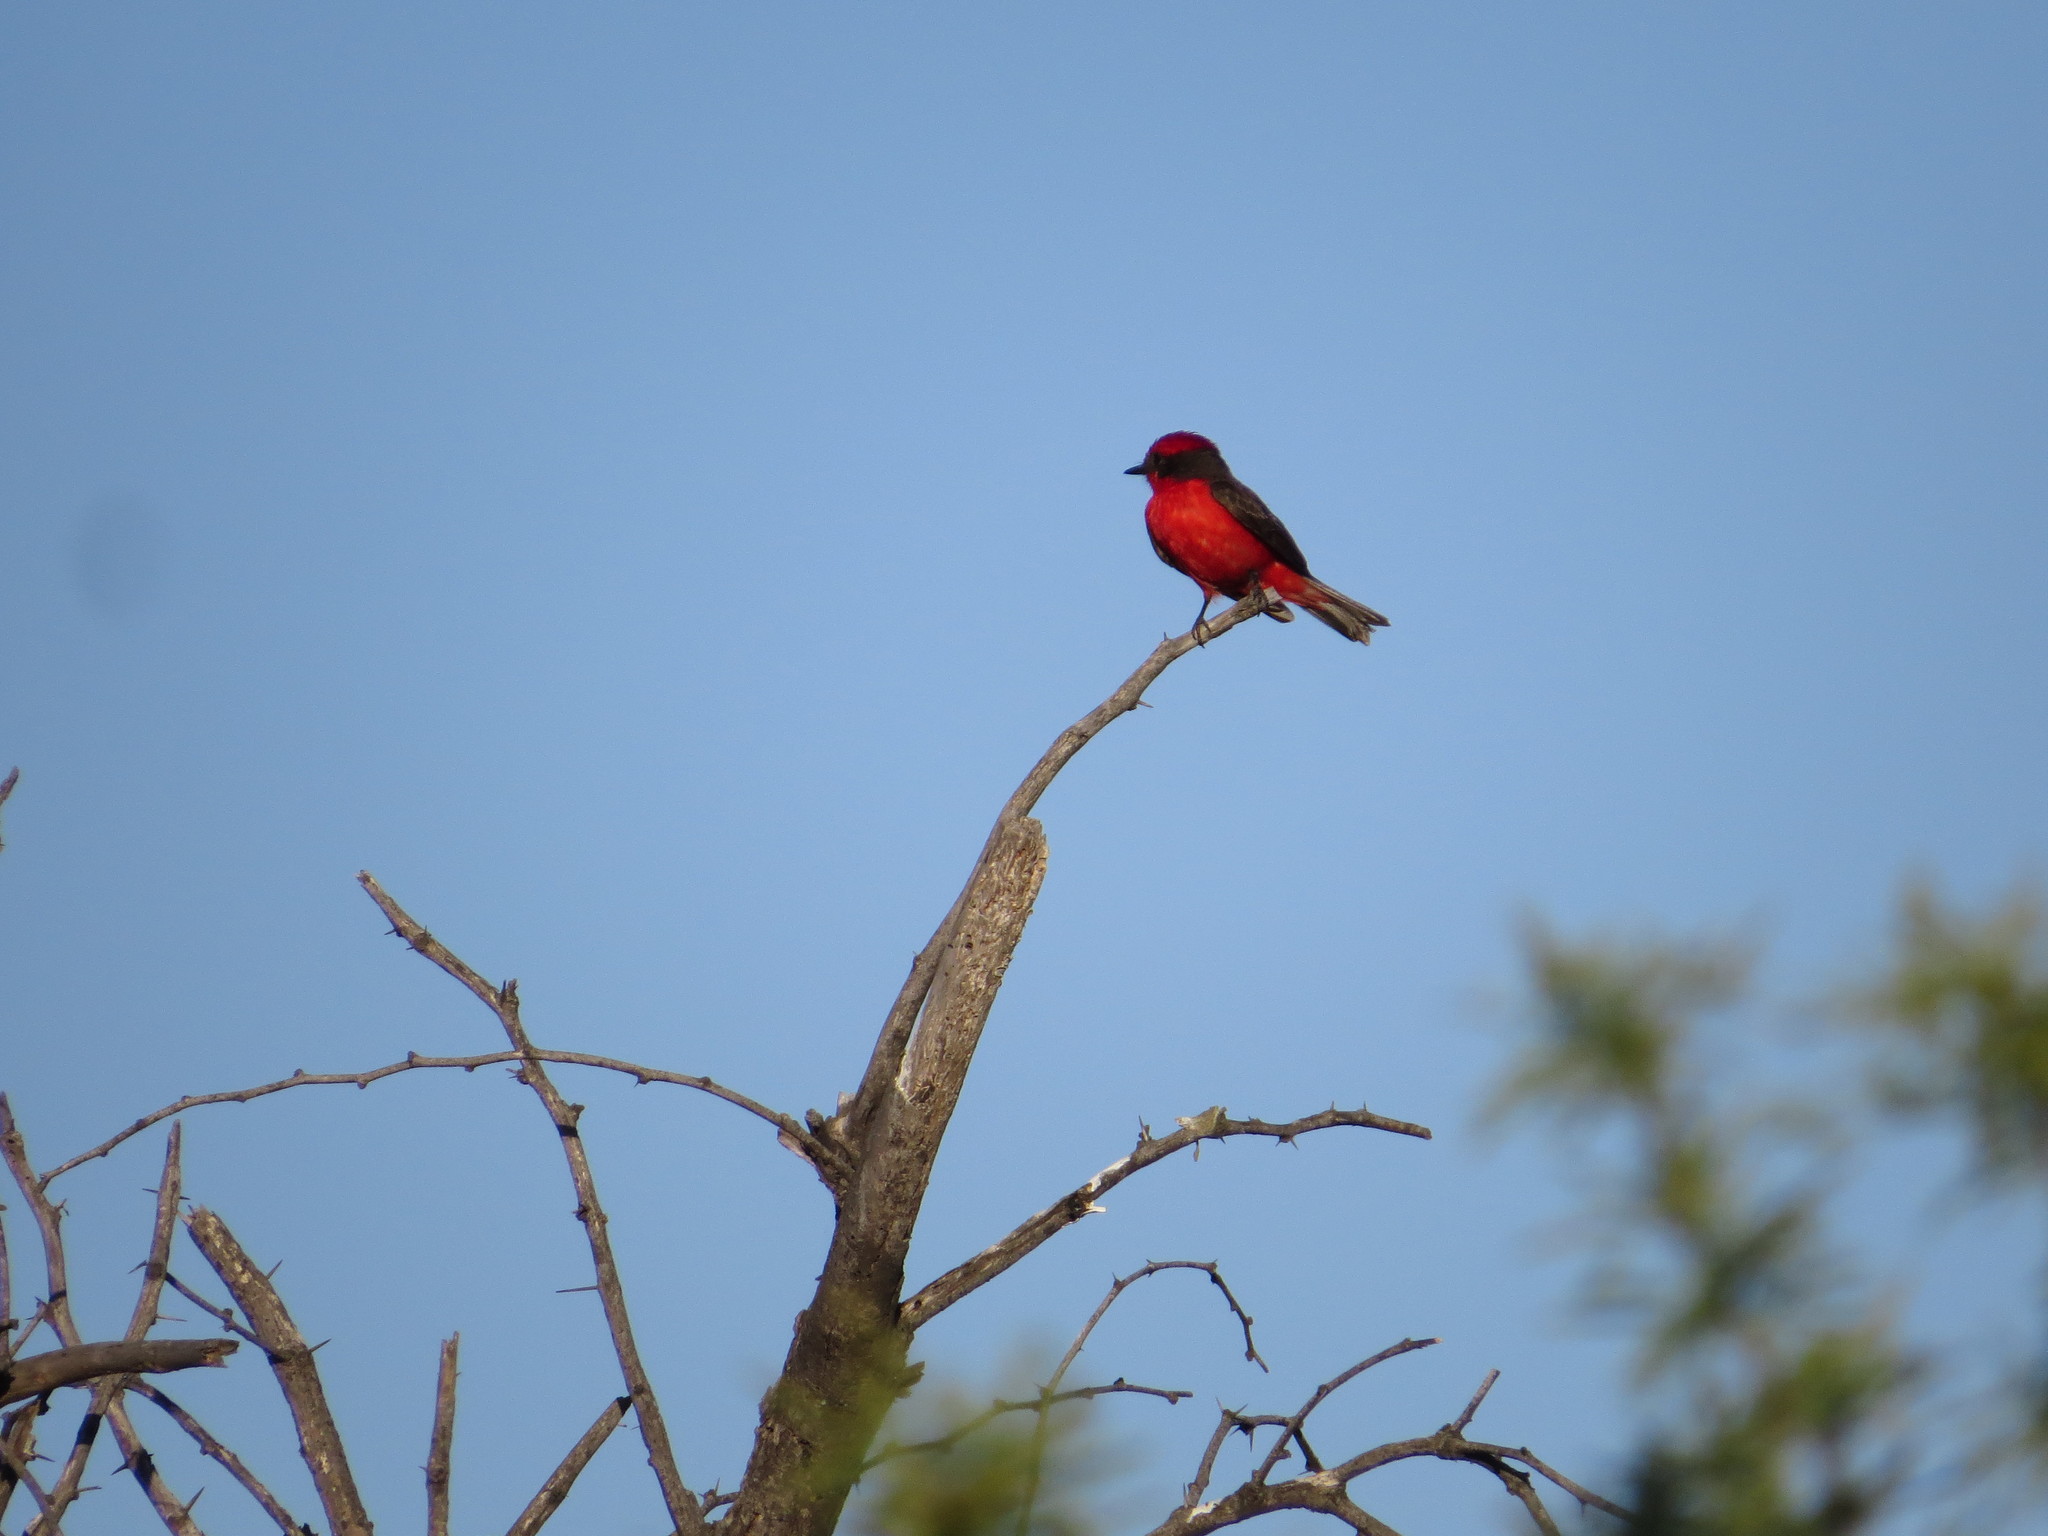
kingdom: Animalia
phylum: Chordata
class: Aves
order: Passeriformes
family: Tyrannidae
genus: Pyrocephalus
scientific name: Pyrocephalus rubinus
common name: Vermilion flycatcher
